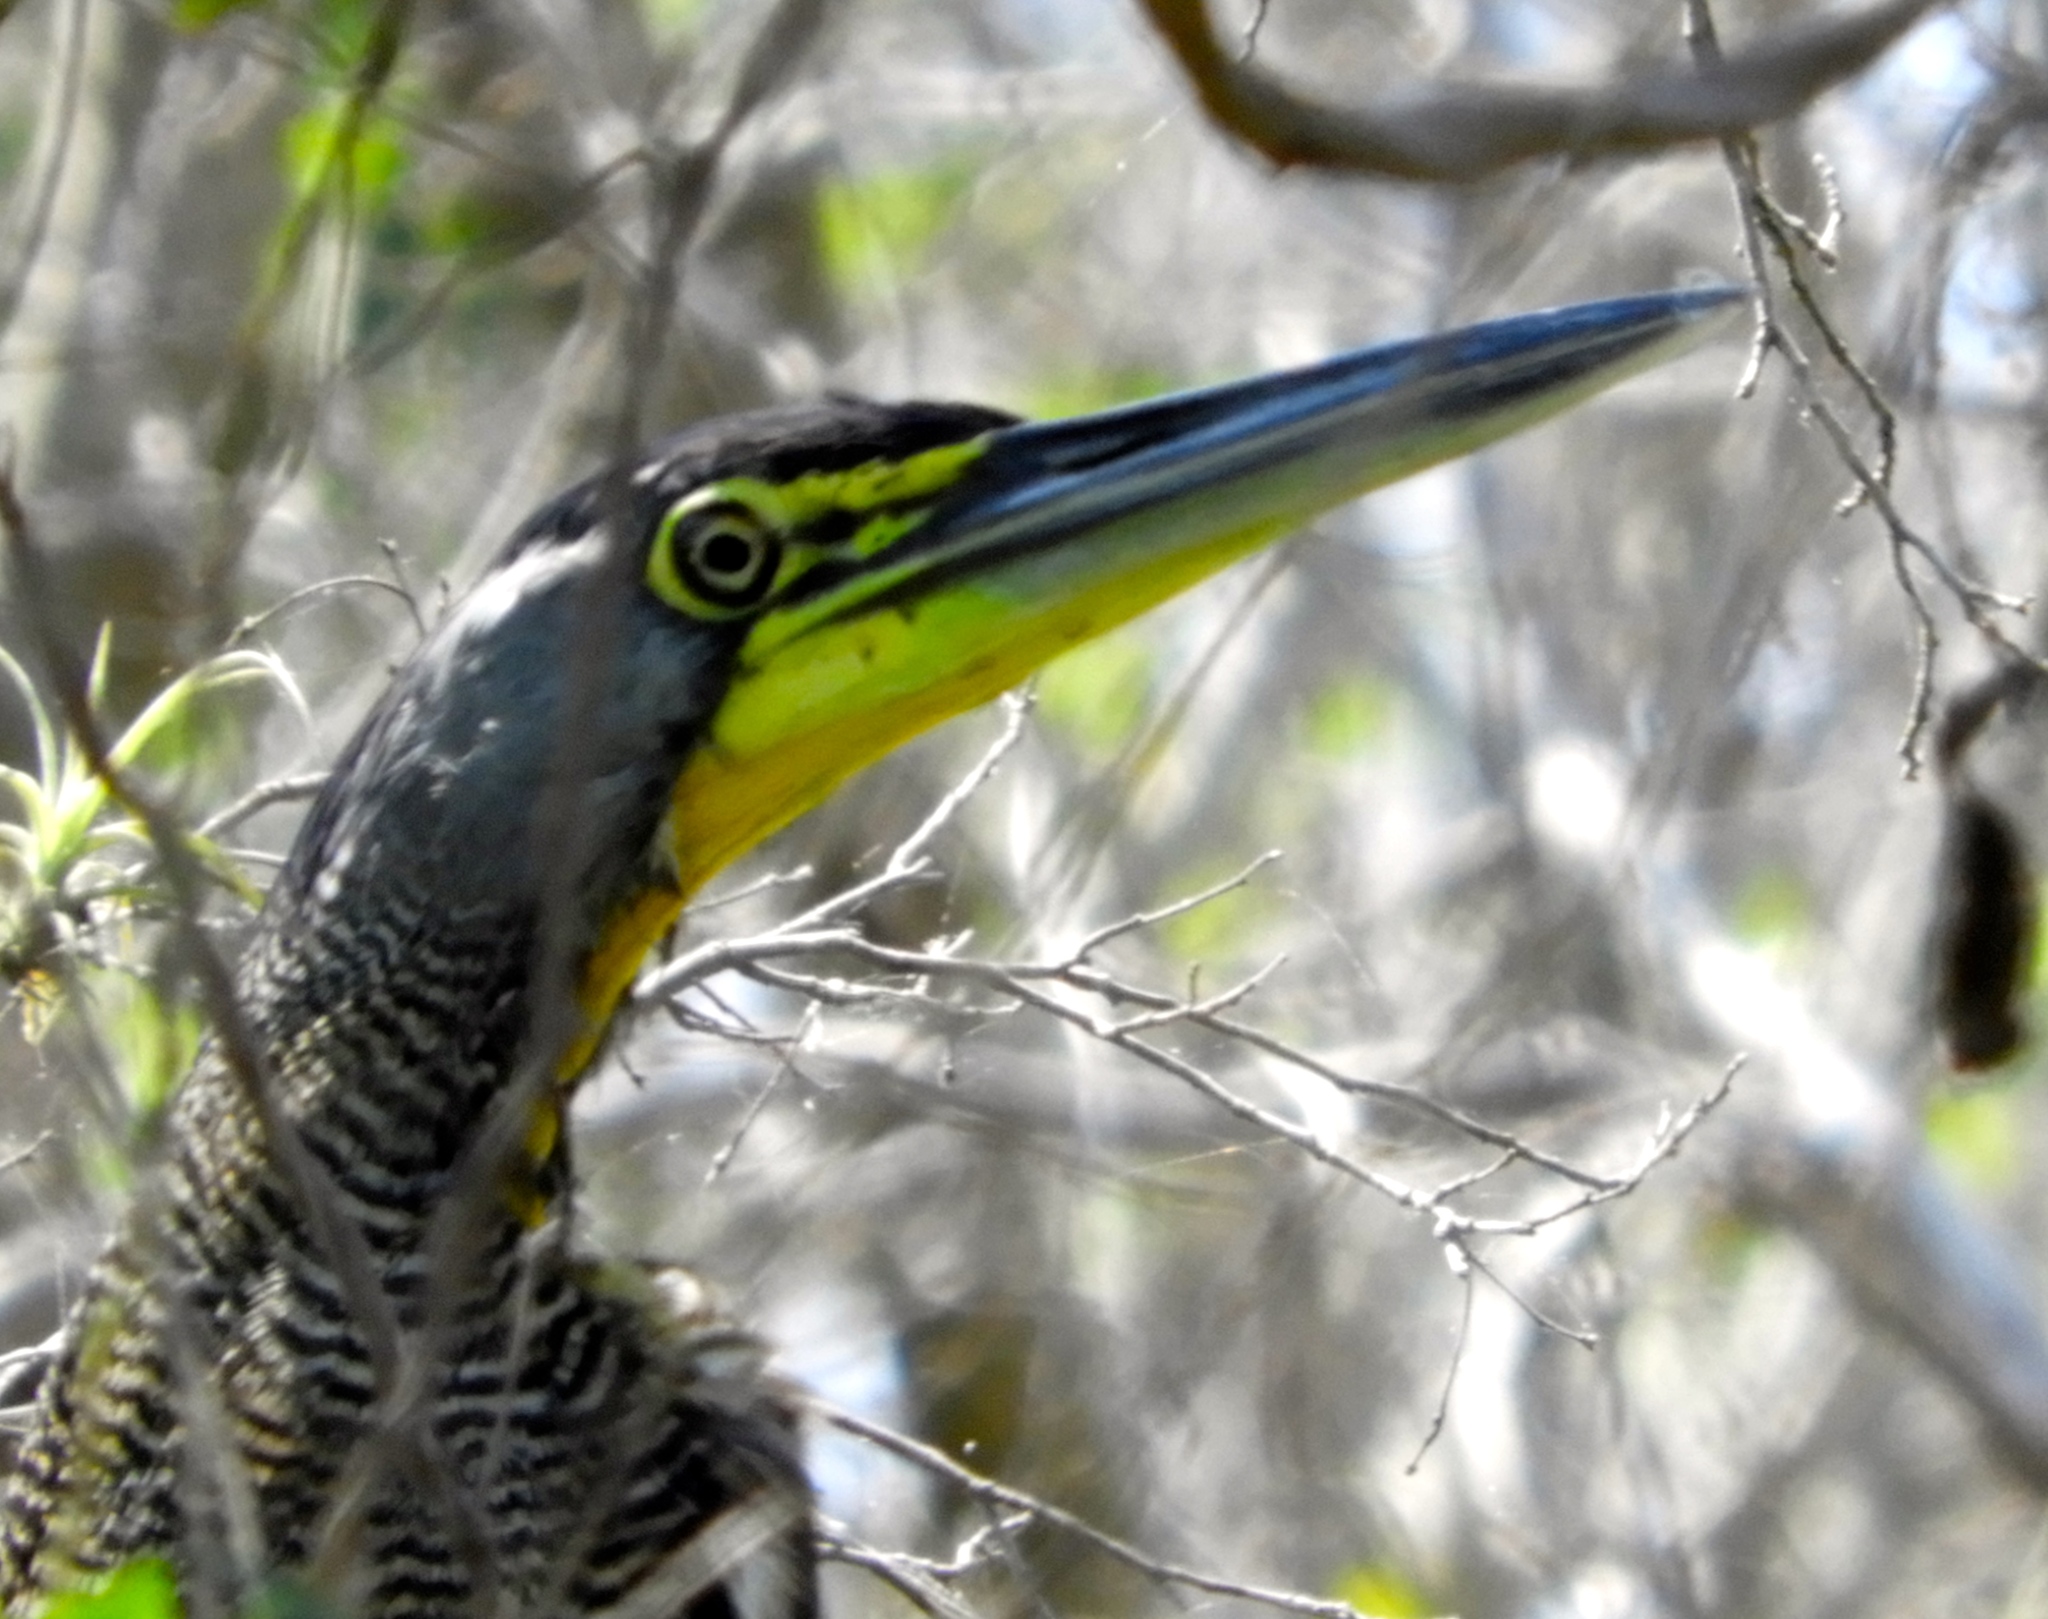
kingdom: Animalia
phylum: Chordata
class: Aves
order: Pelecaniformes
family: Ardeidae
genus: Tigrisoma
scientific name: Tigrisoma mexicanum
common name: Bare-throated tiger-heron
